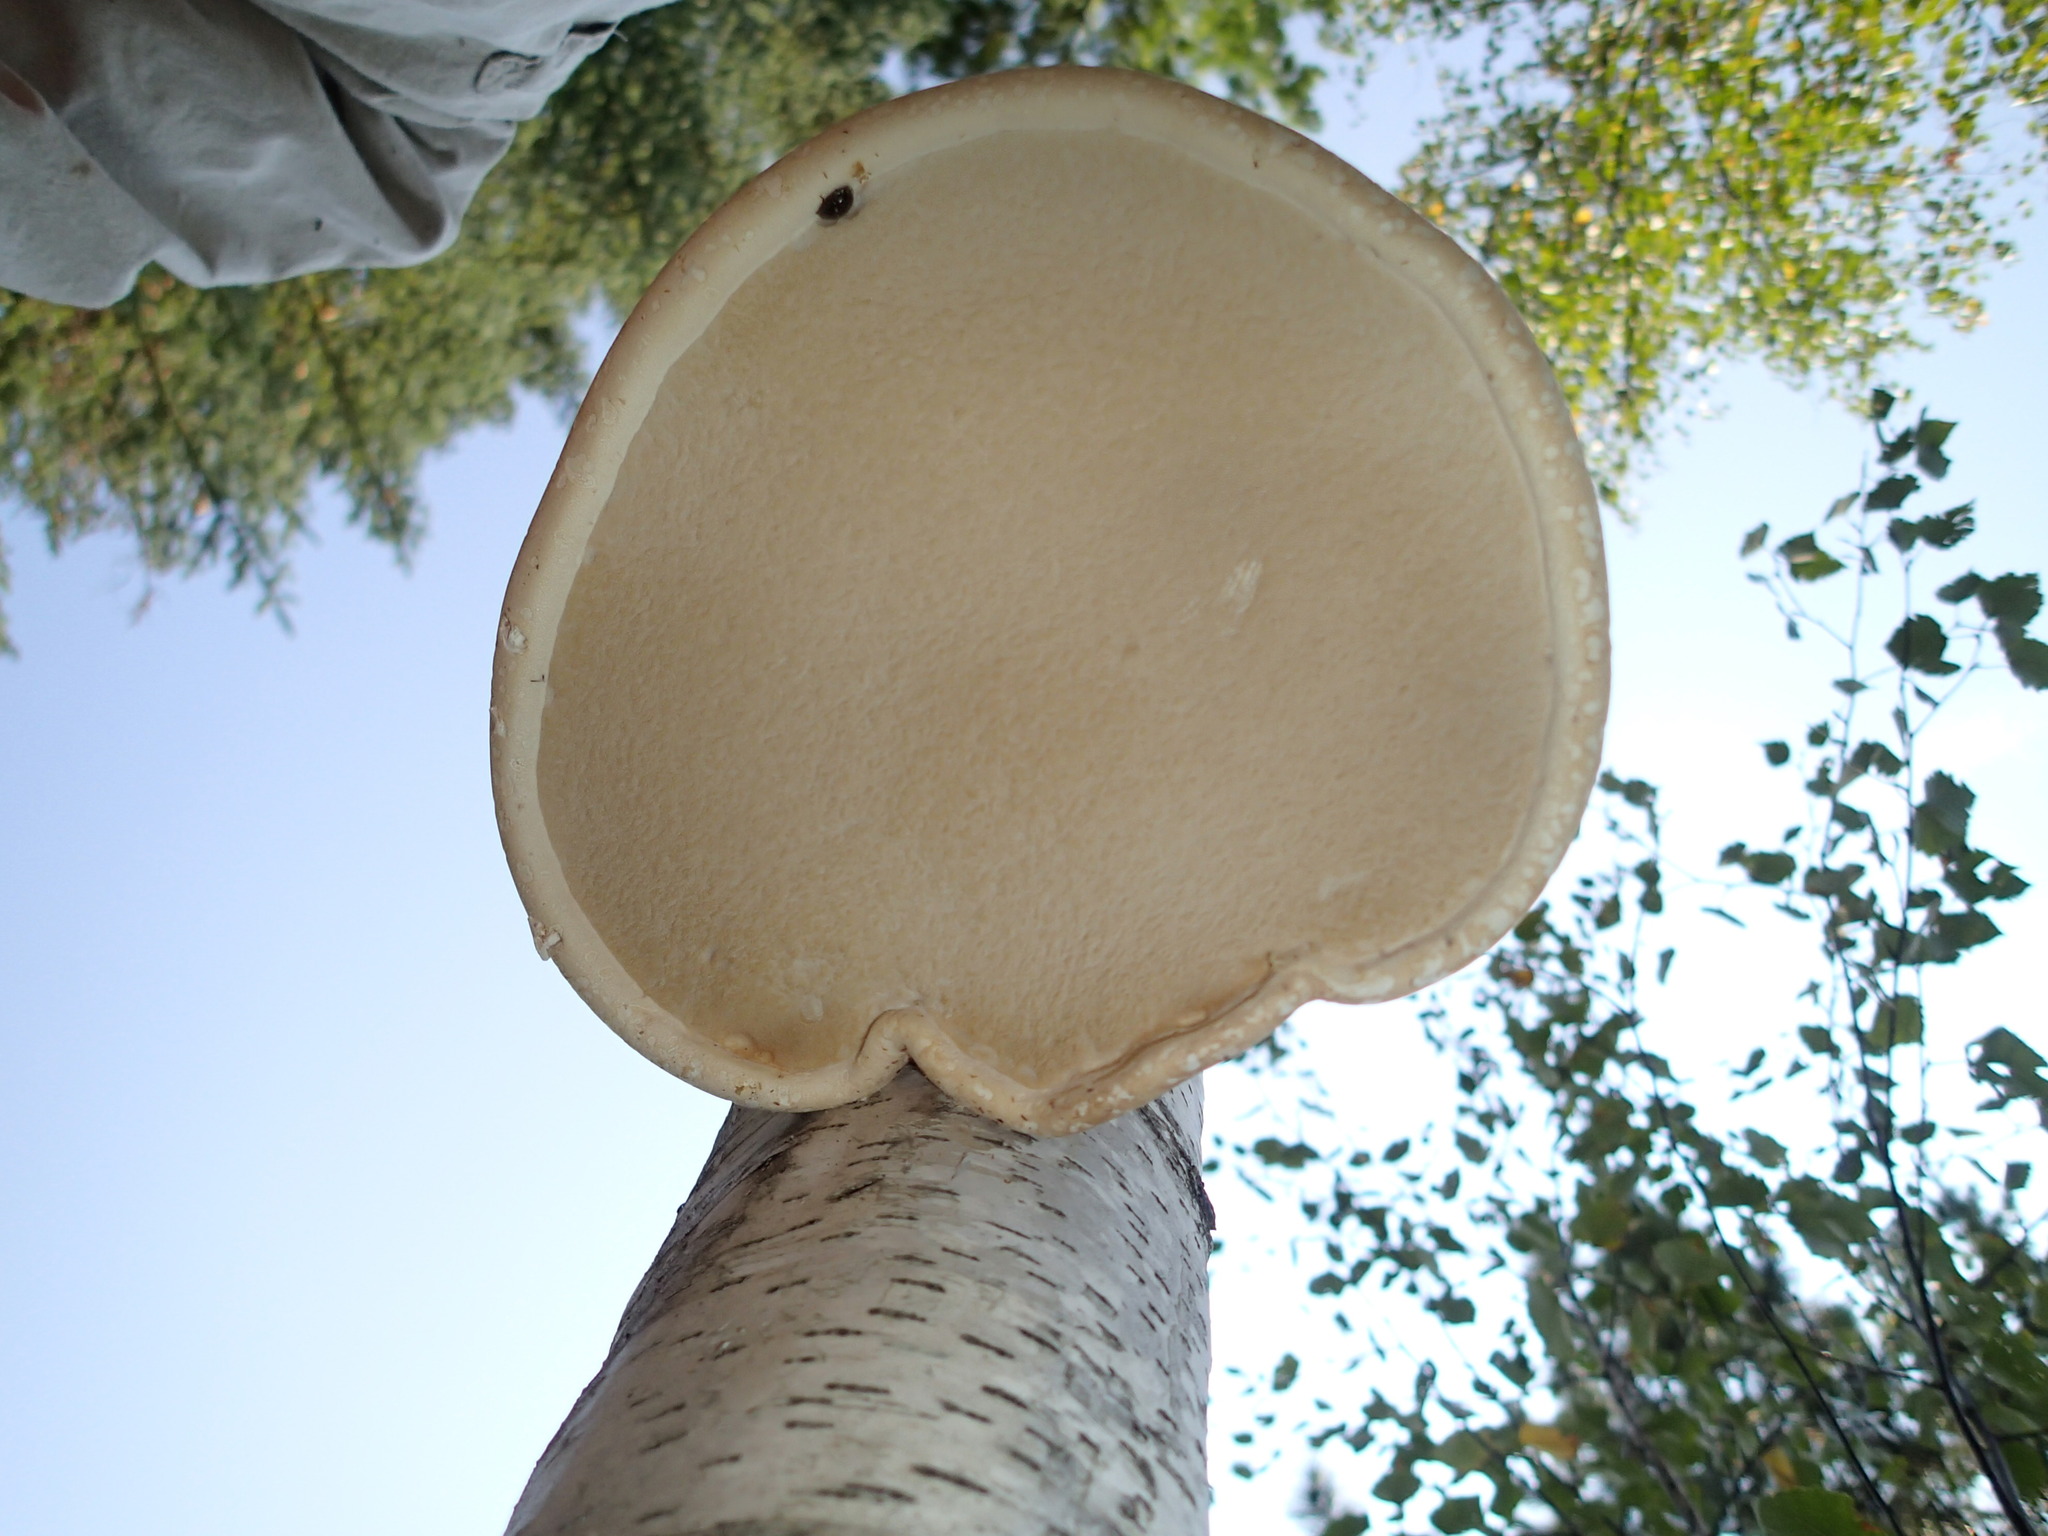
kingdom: Fungi
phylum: Basidiomycota
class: Agaricomycetes
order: Polyporales
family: Fomitopsidaceae
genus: Fomitopsis
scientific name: Fomitopsis betulina
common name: Birch polypore
